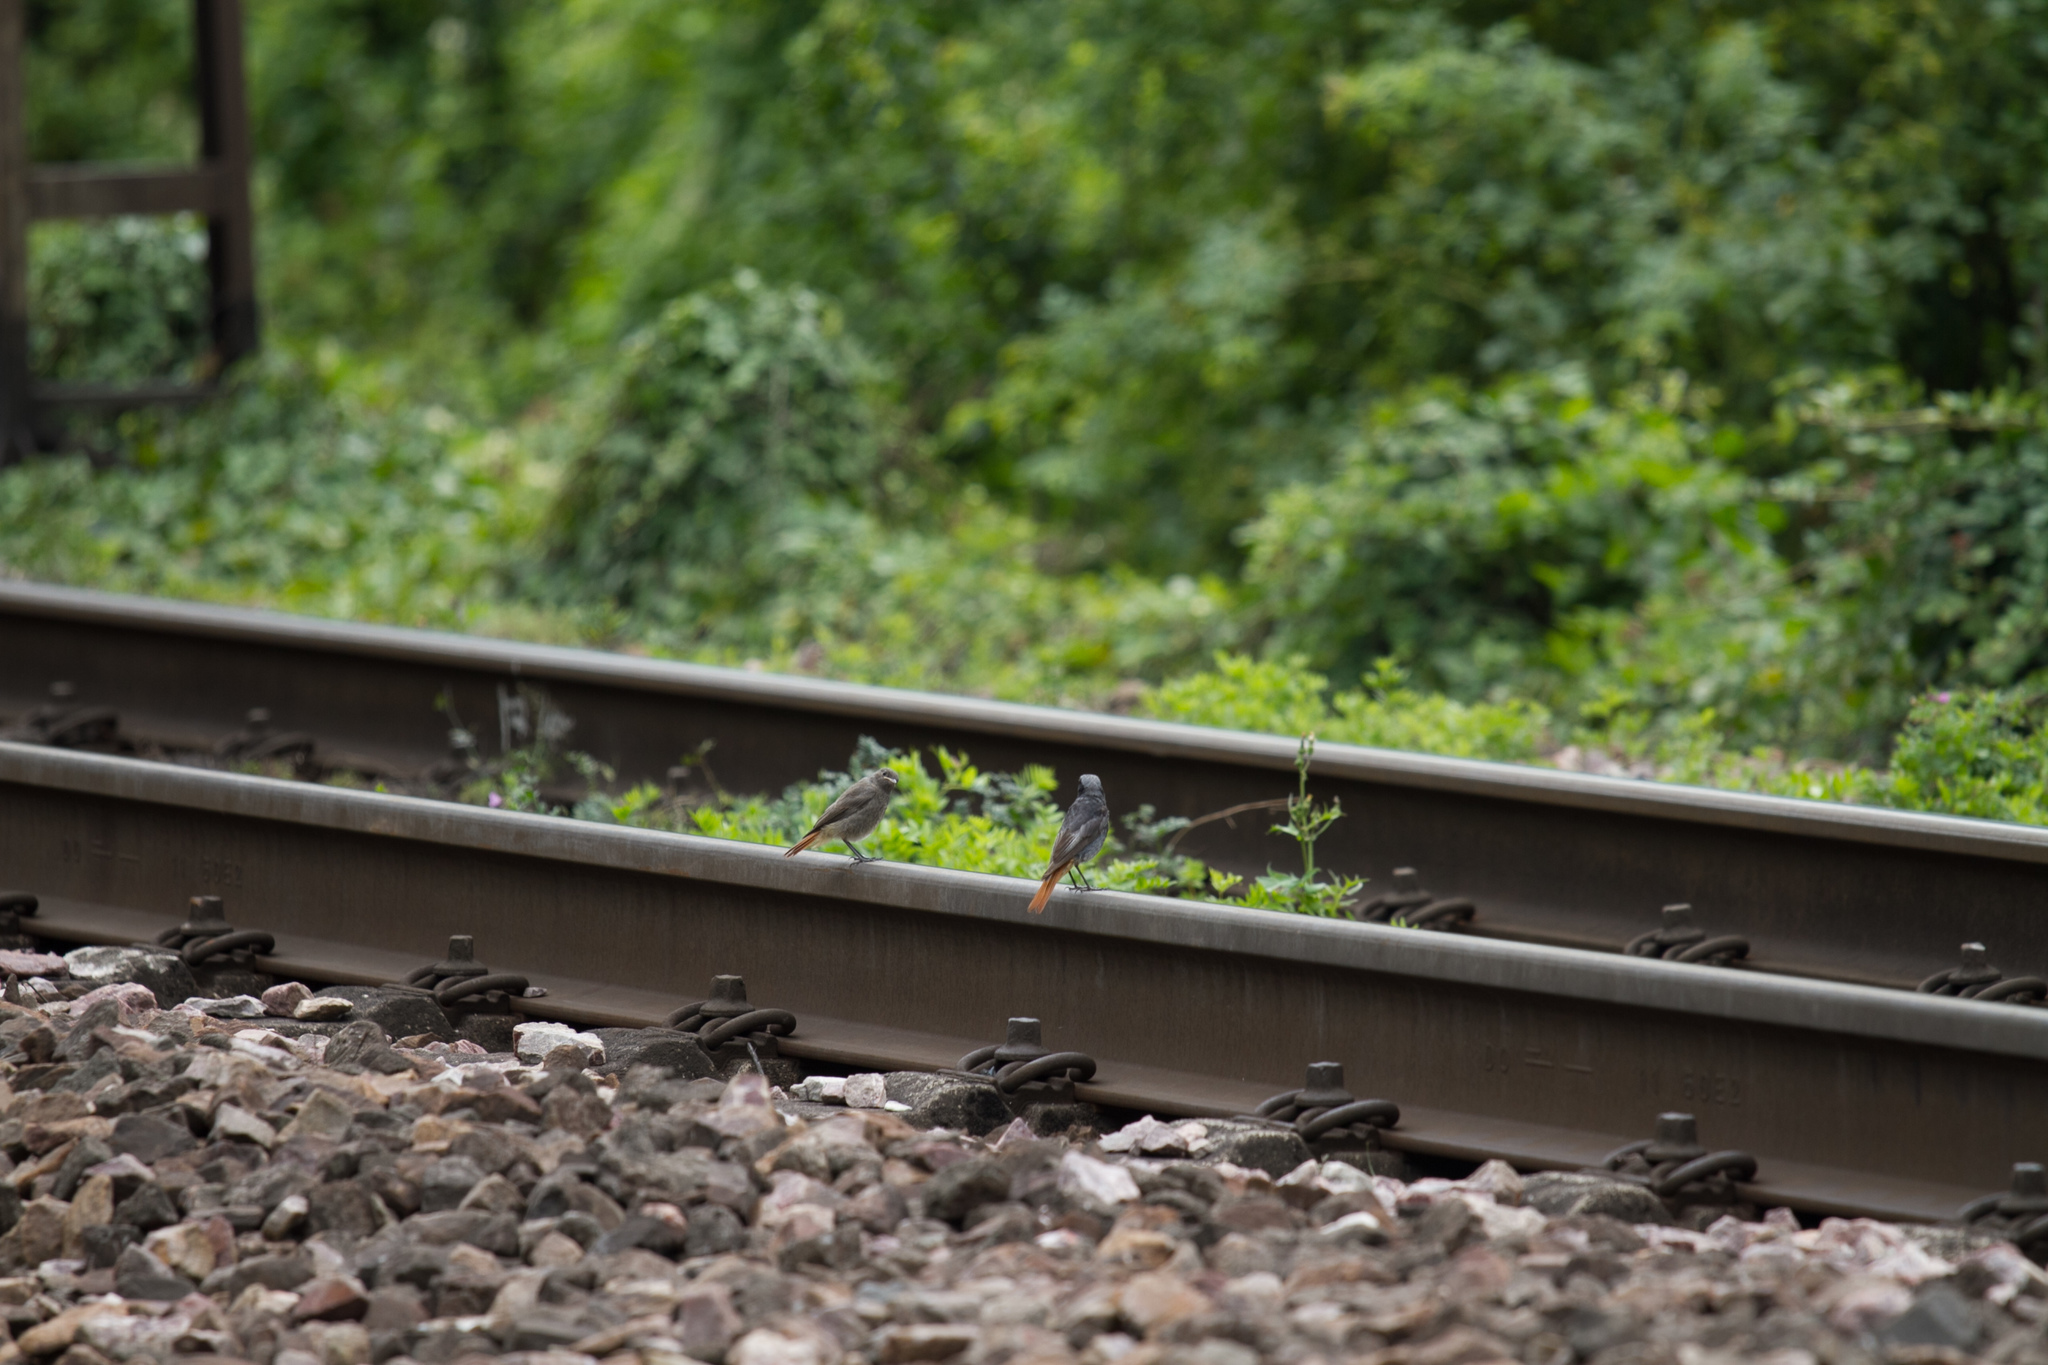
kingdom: Animalia
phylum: Chordata
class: Aves
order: Passeriformes
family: Muscicapidae
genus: Phoenicurus
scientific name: Phoenicurus ochruros
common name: Black redstart
